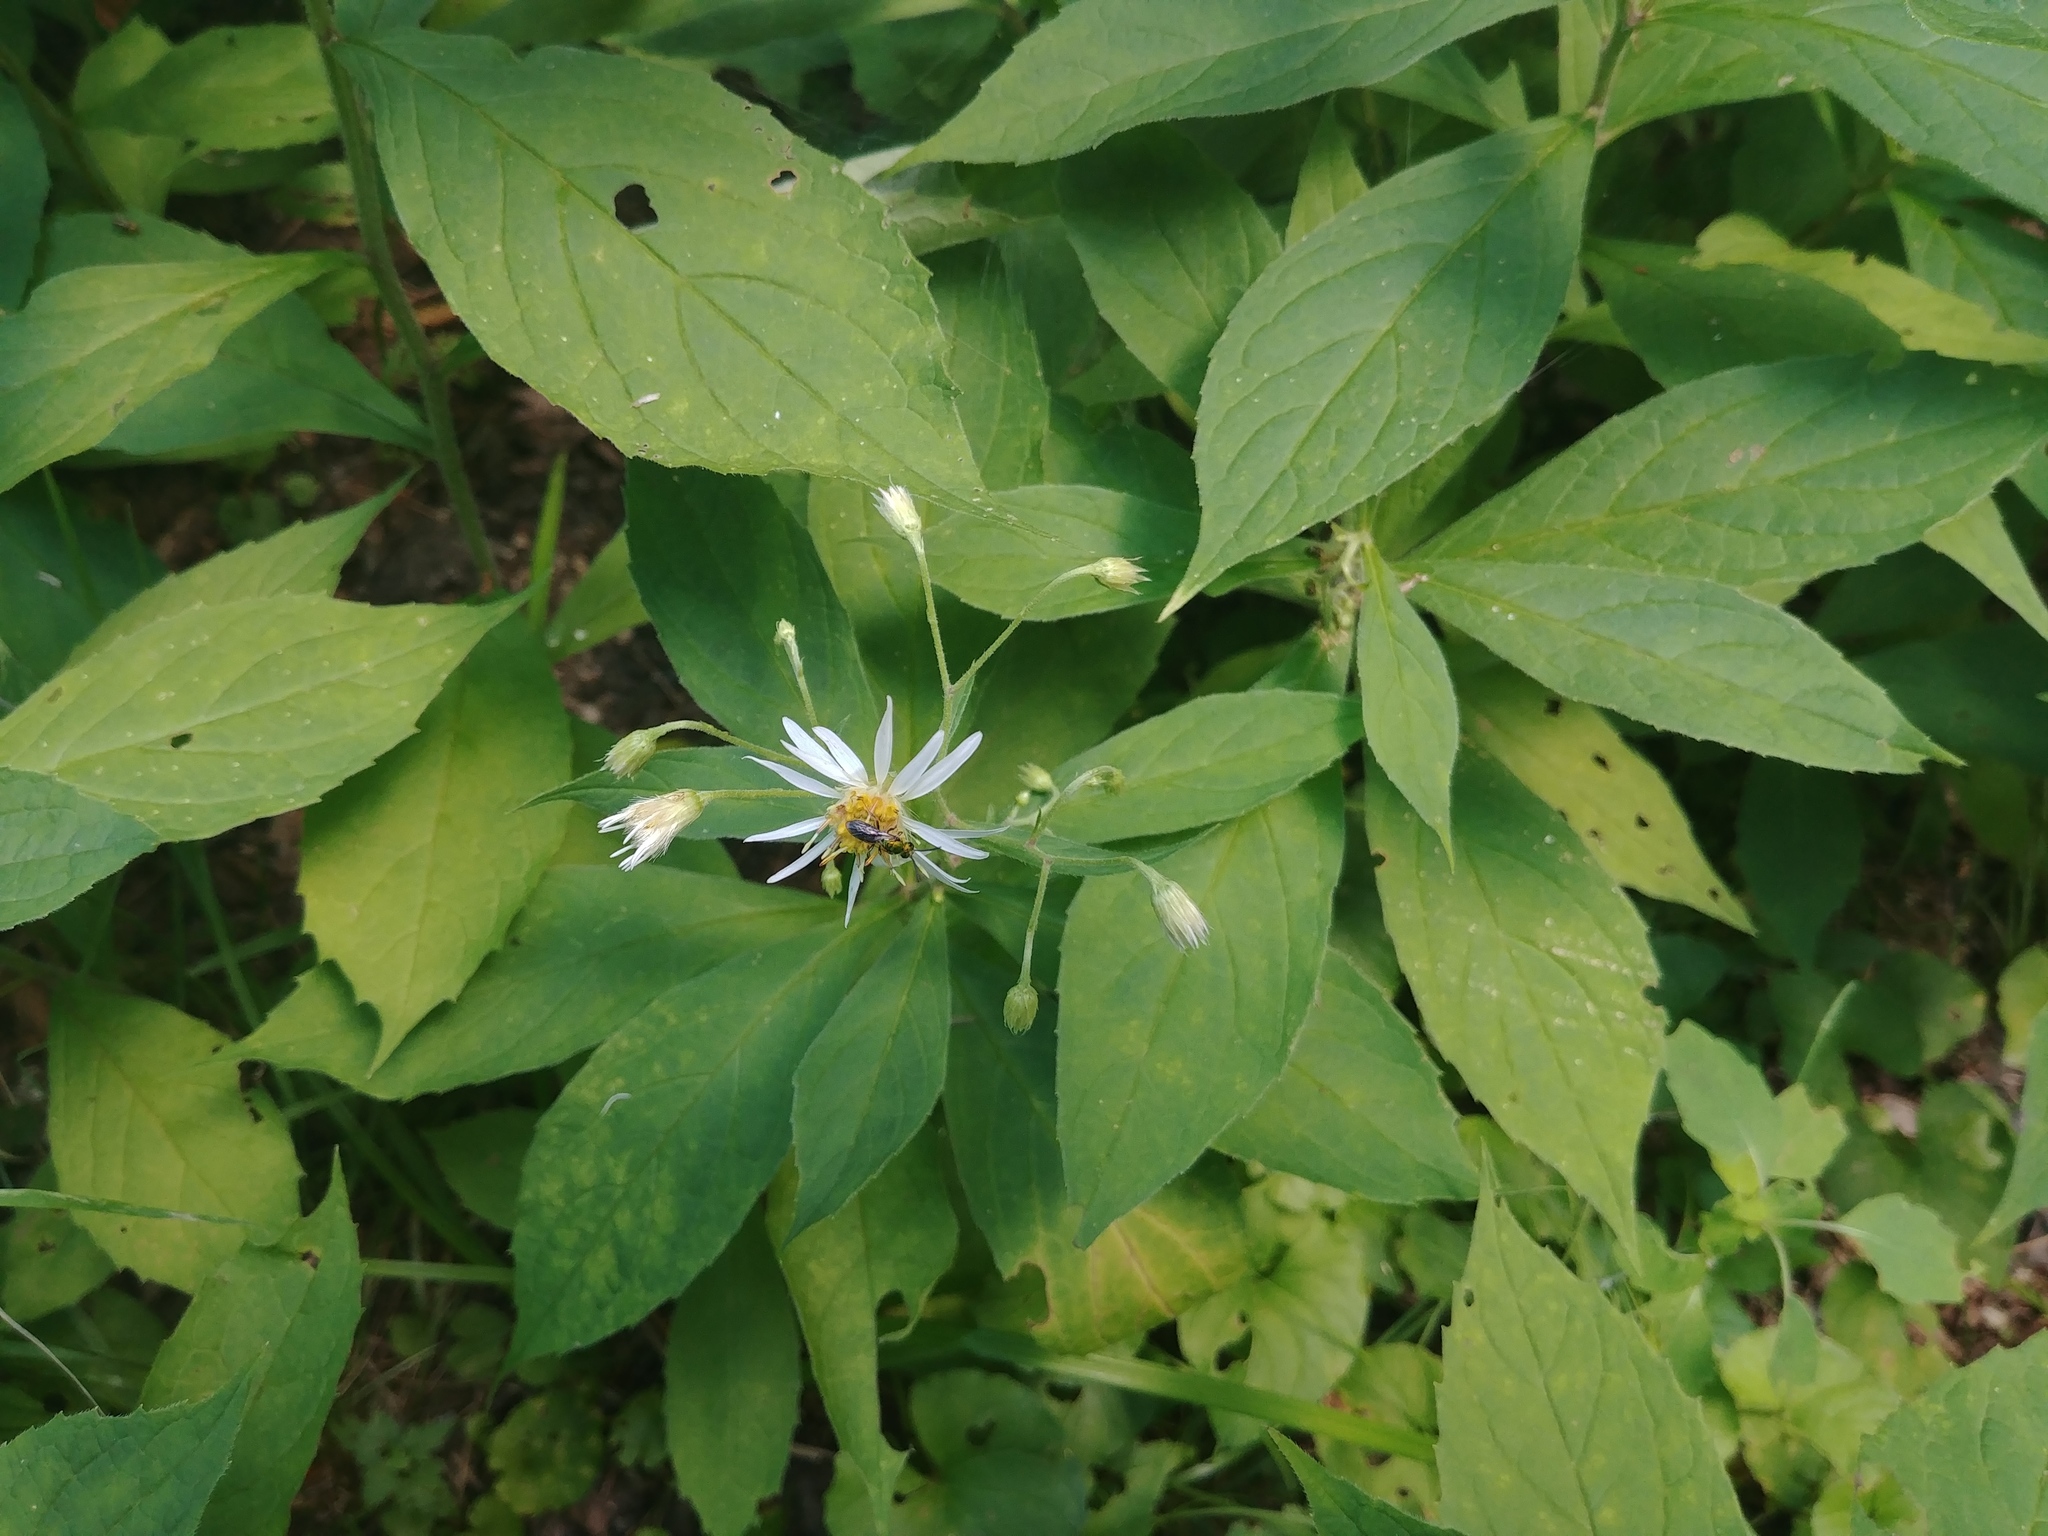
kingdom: Plantae
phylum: Tracheophyta
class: Magnoliopsida
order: Asterales
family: Asteraceae
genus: Oclemena
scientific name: Oclemena acuminata
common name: Mountain aster
